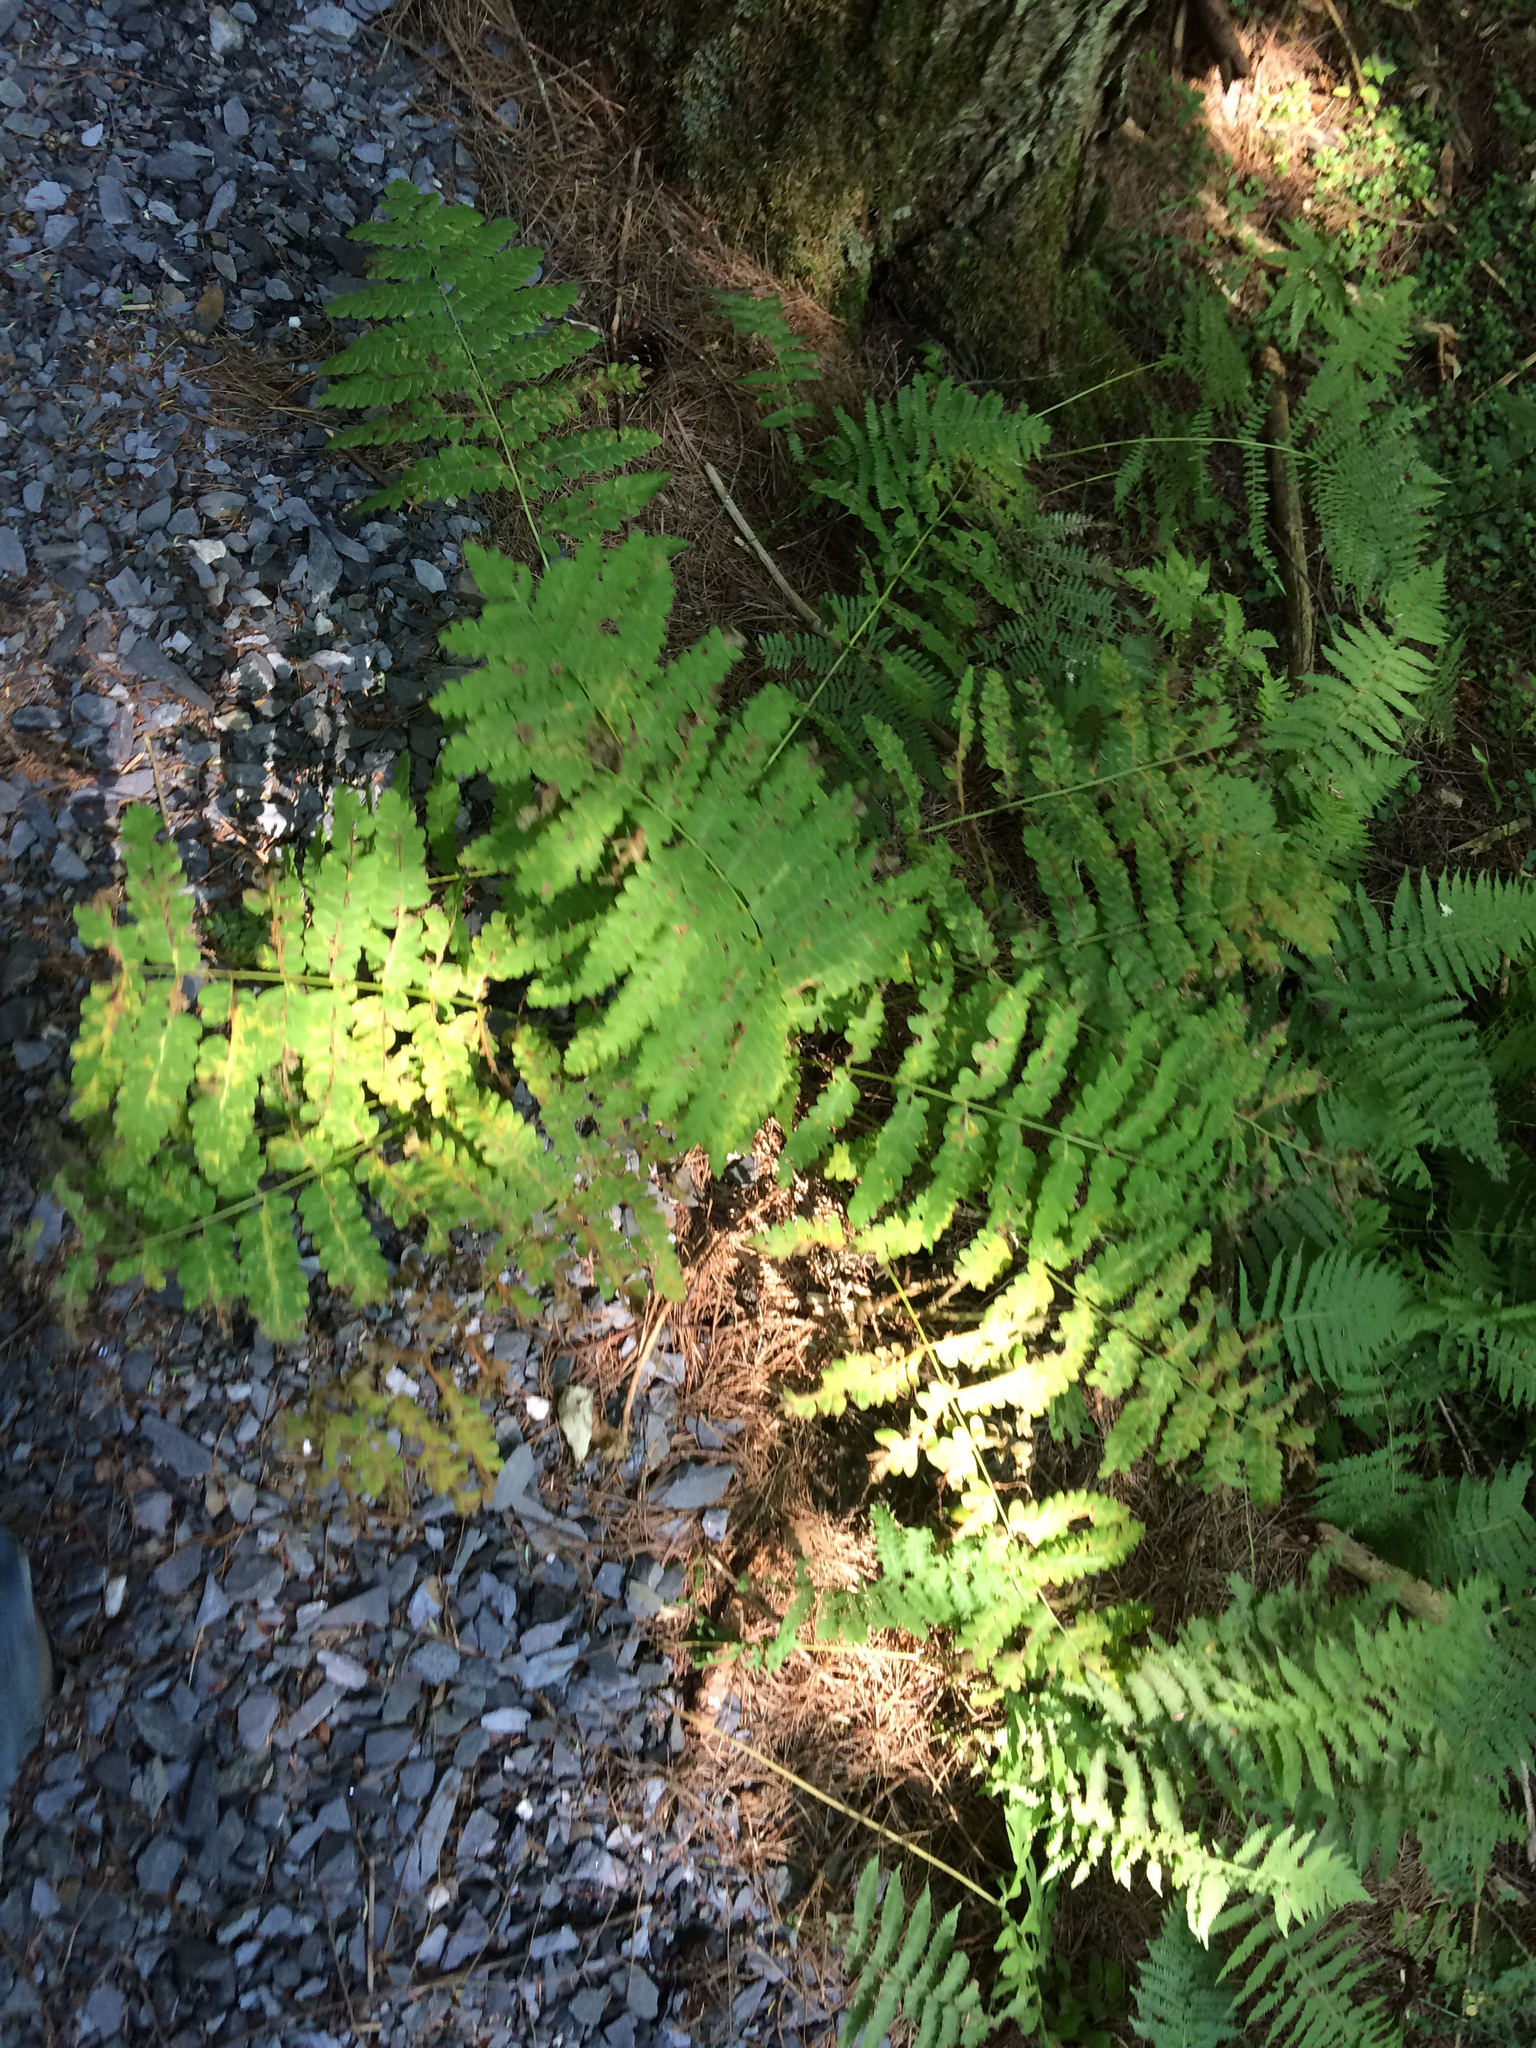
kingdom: Plantae
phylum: Tracheophyta
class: Polypodiopsida
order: Osmundales
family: Osmundaceae
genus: Claytosmunda
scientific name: Claytosmunda claytoniana
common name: Clayton's fern
